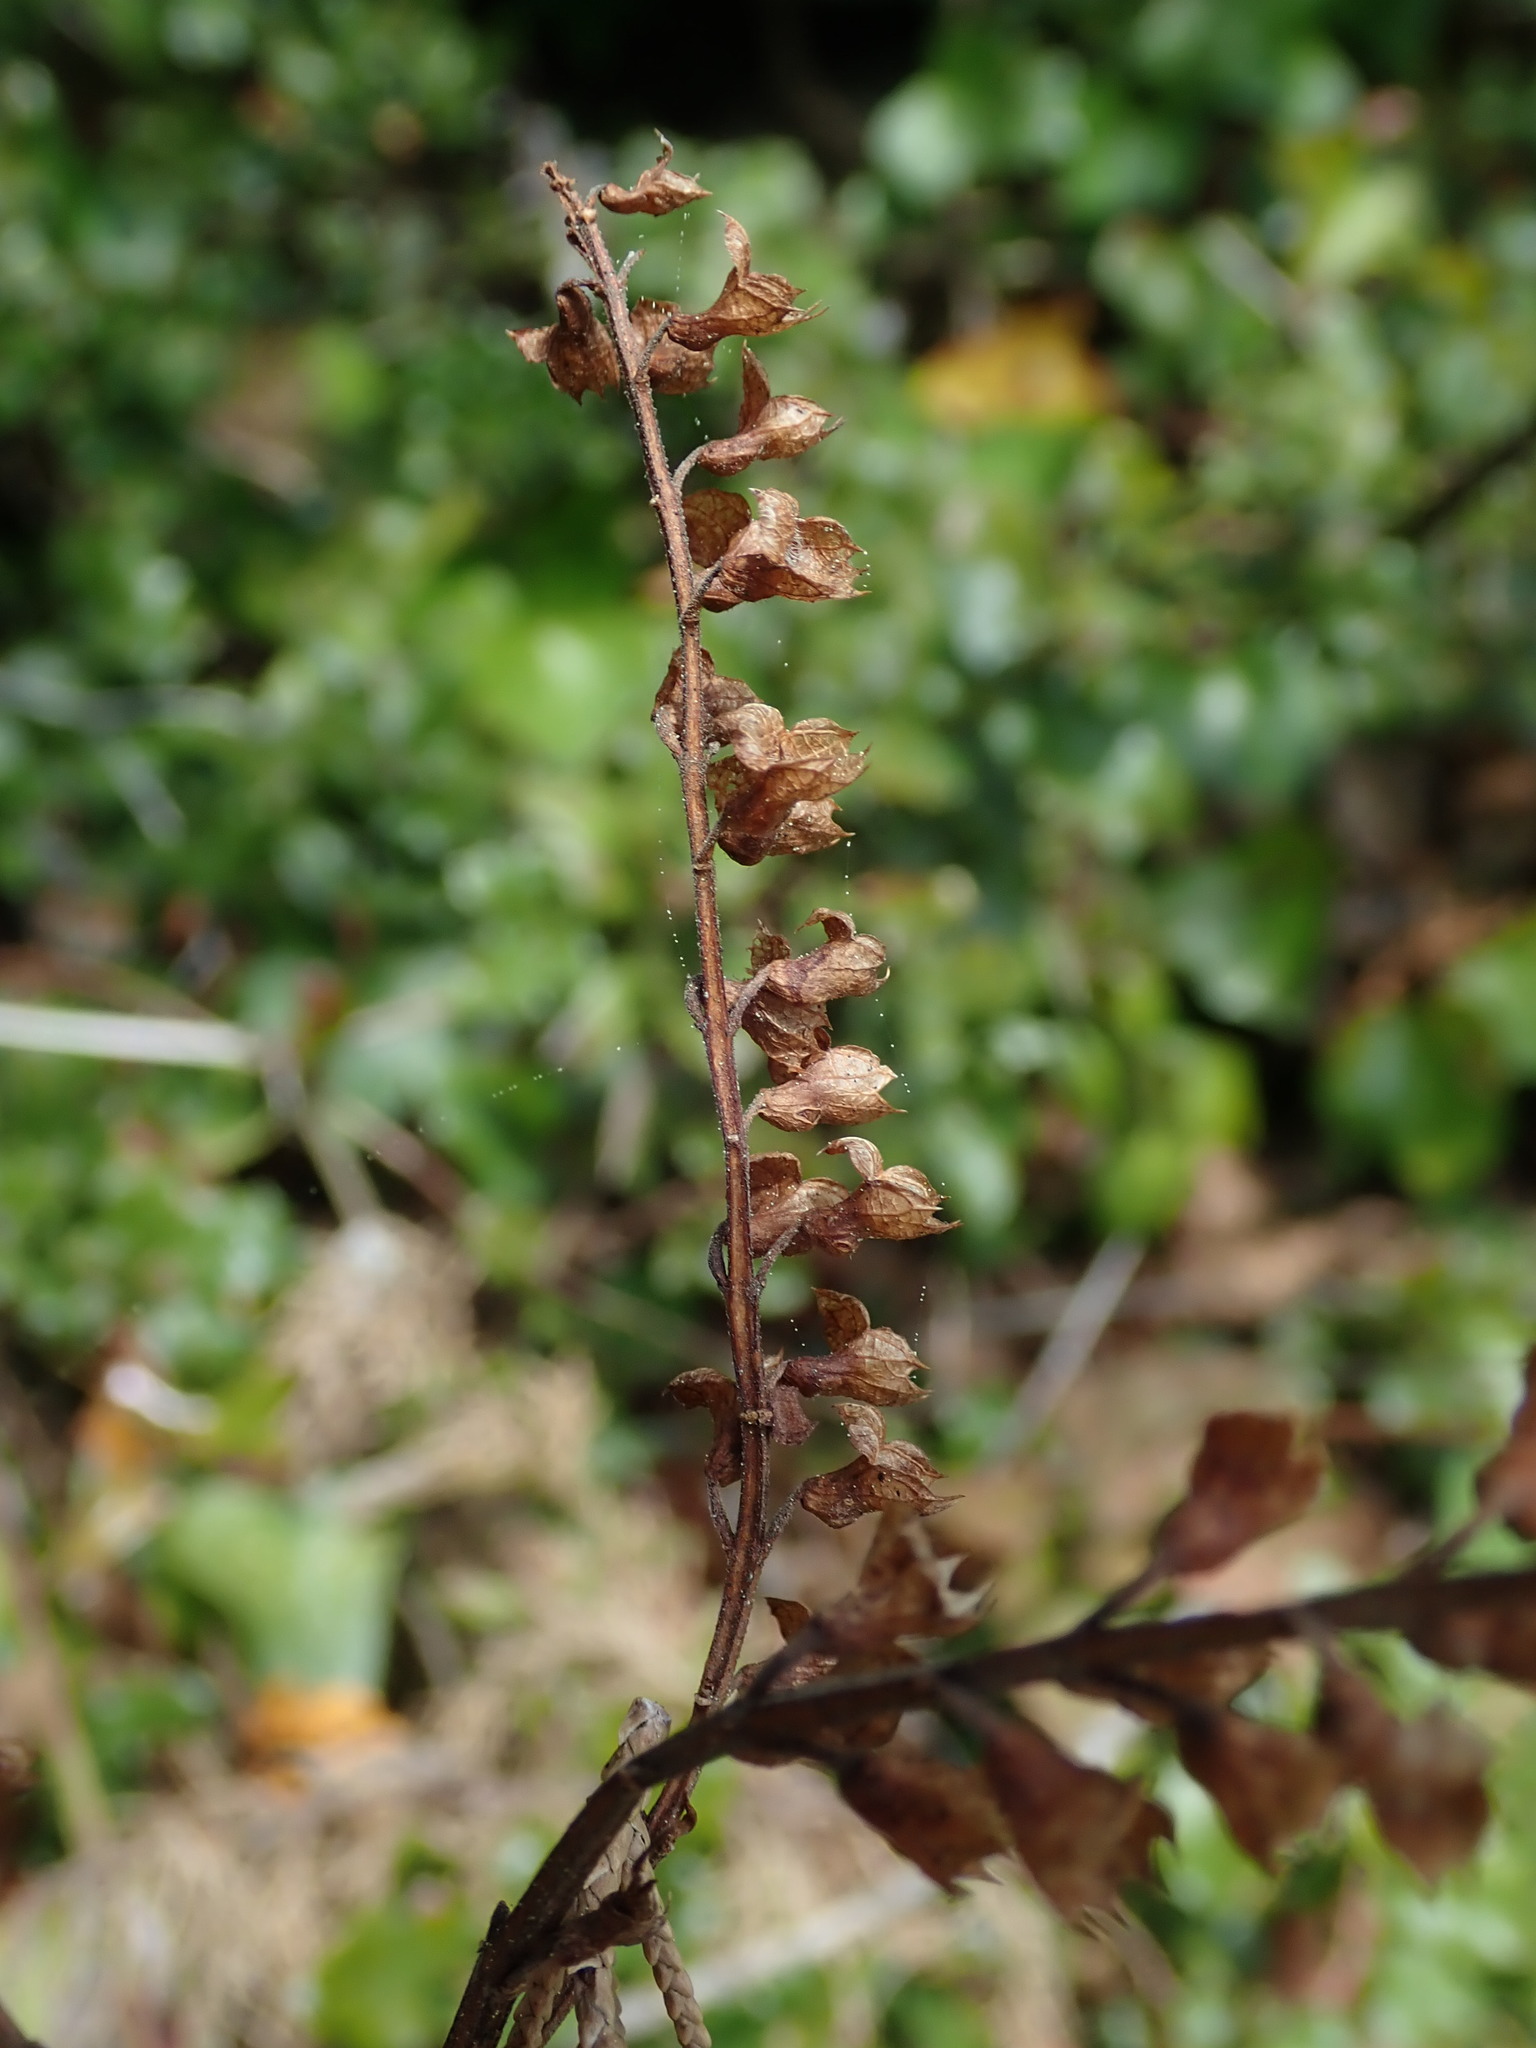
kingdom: Plantae
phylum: Tracheophyta
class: Magnoliopsida
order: Lamiales
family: Lamiaceae
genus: Teucrium
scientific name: Teucrium scorodonia
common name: Woodland germander
